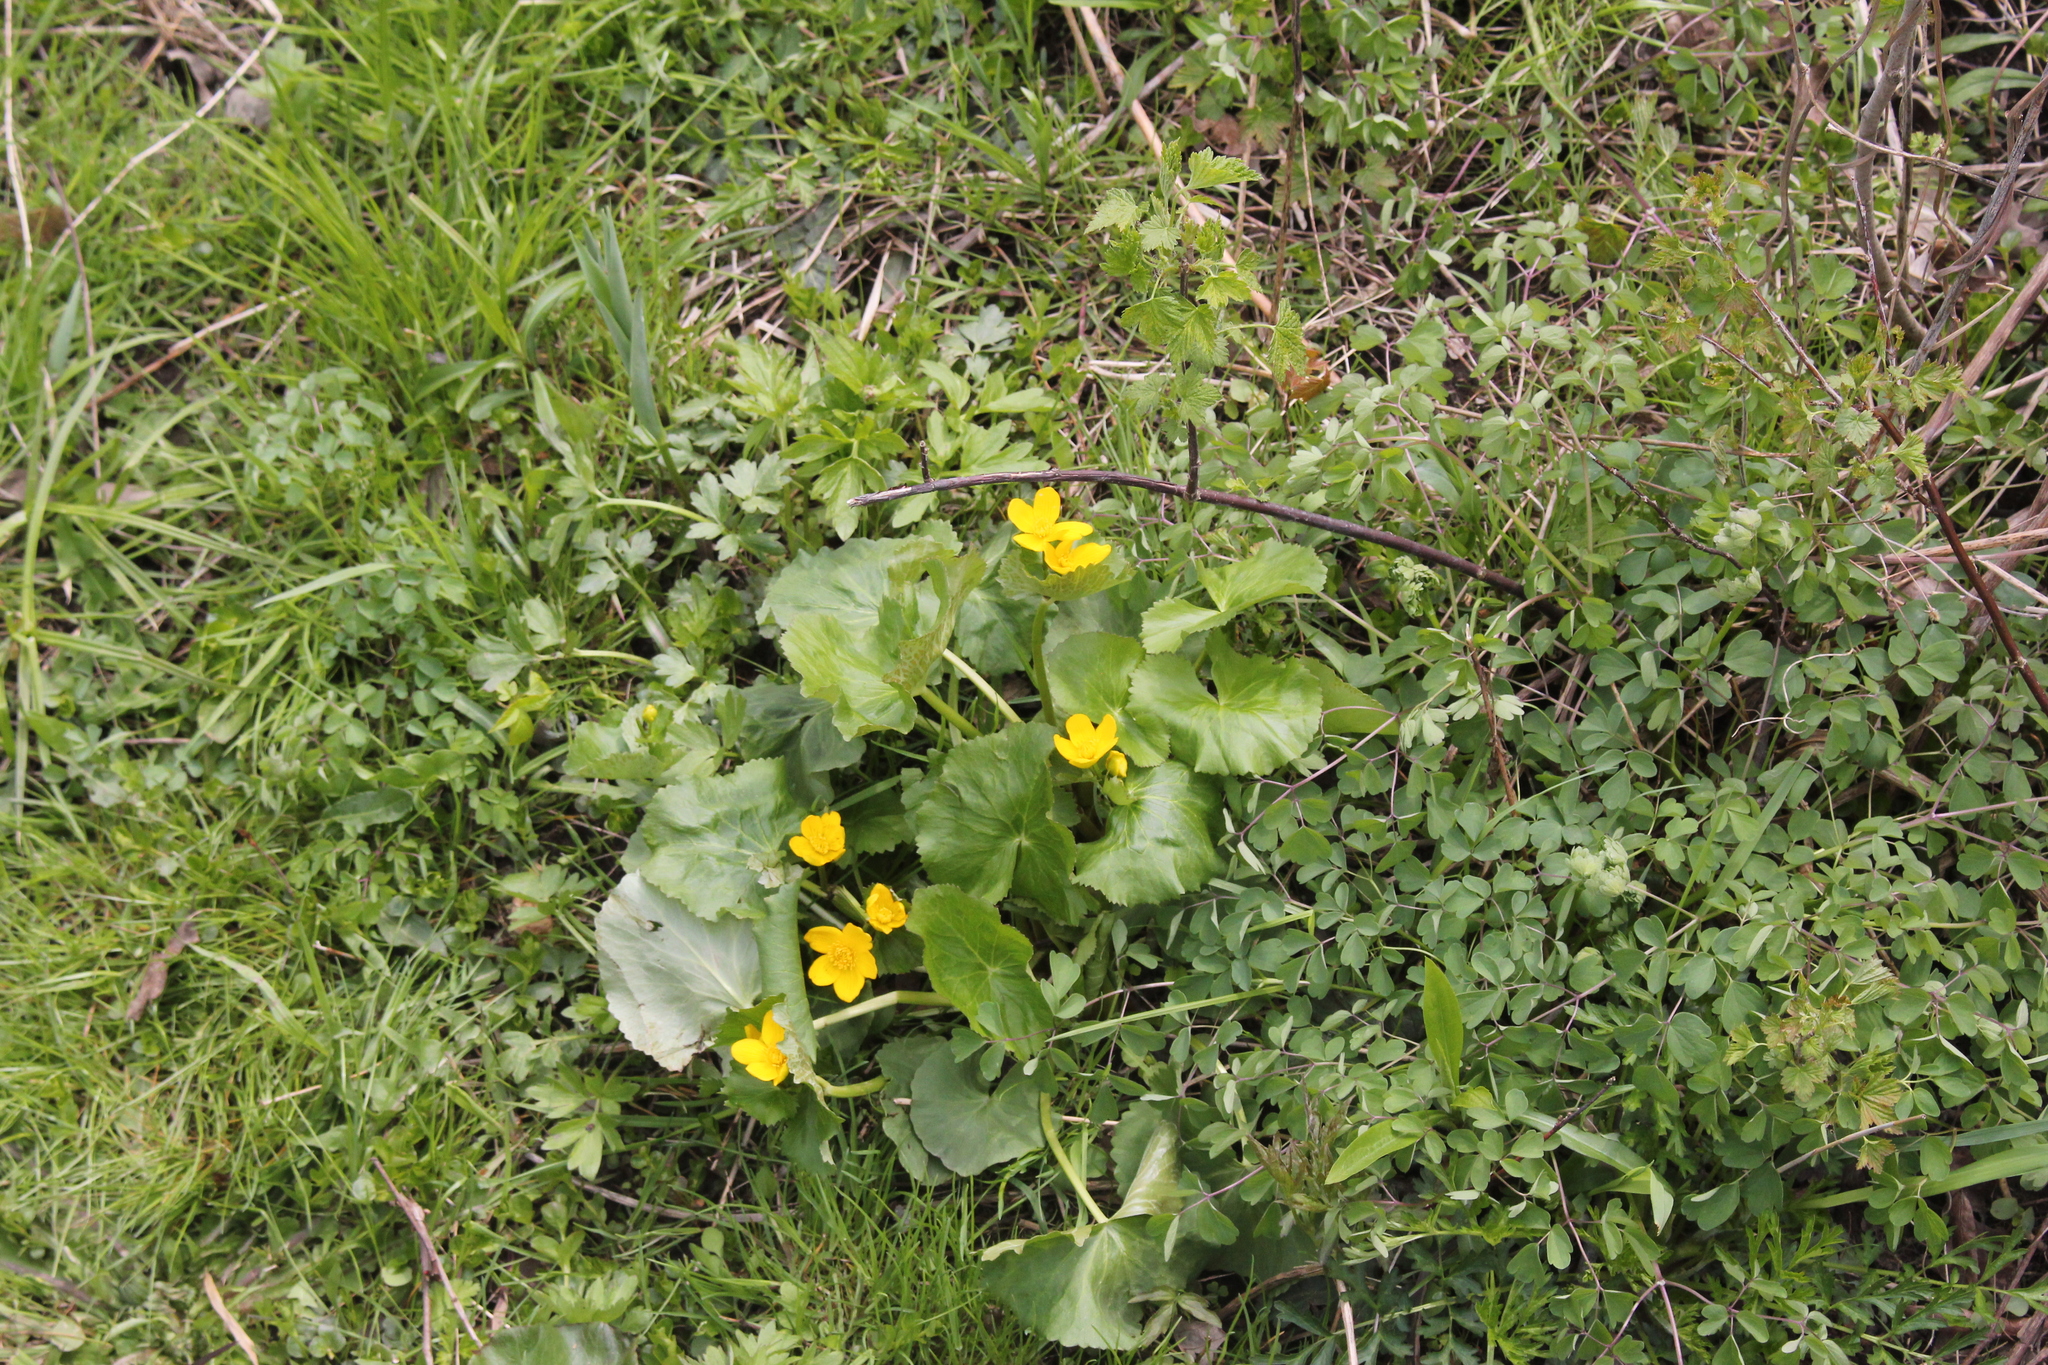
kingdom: Plantae
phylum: Tracheophyta
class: Magnoliopsida
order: Ranunculales
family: Ranunculaceae
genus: Caltha
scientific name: Caltha palustris
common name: Marsh marigold
